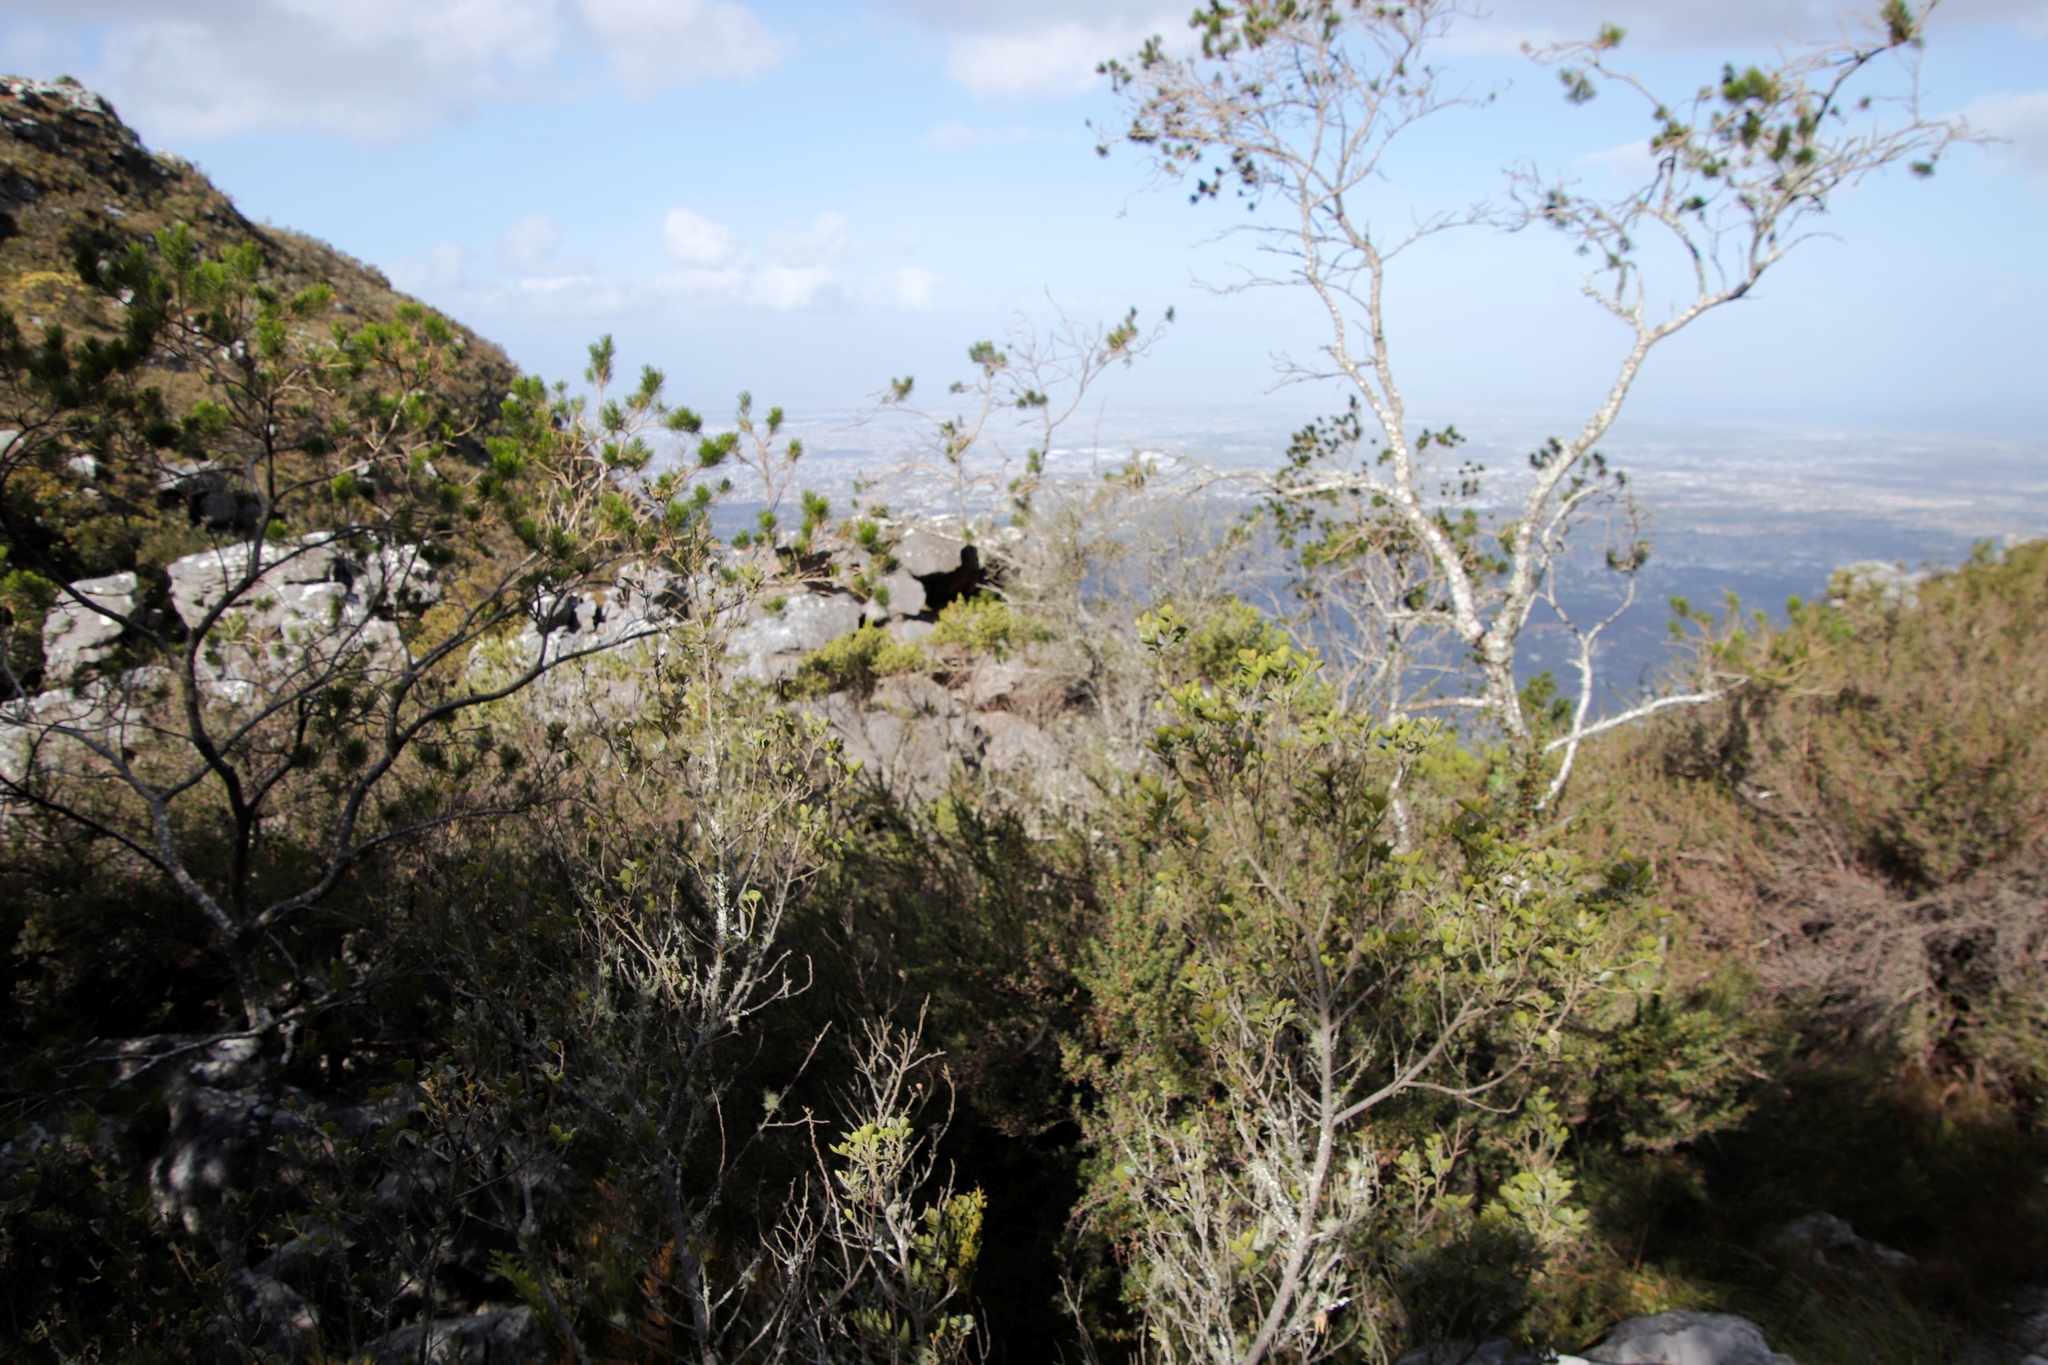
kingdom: Plantae
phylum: Tracheophyta
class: Magnoliopsida
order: Fabales
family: Fabaceae
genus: Psoralea
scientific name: Psoralea pinnata
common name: African scurfpea
